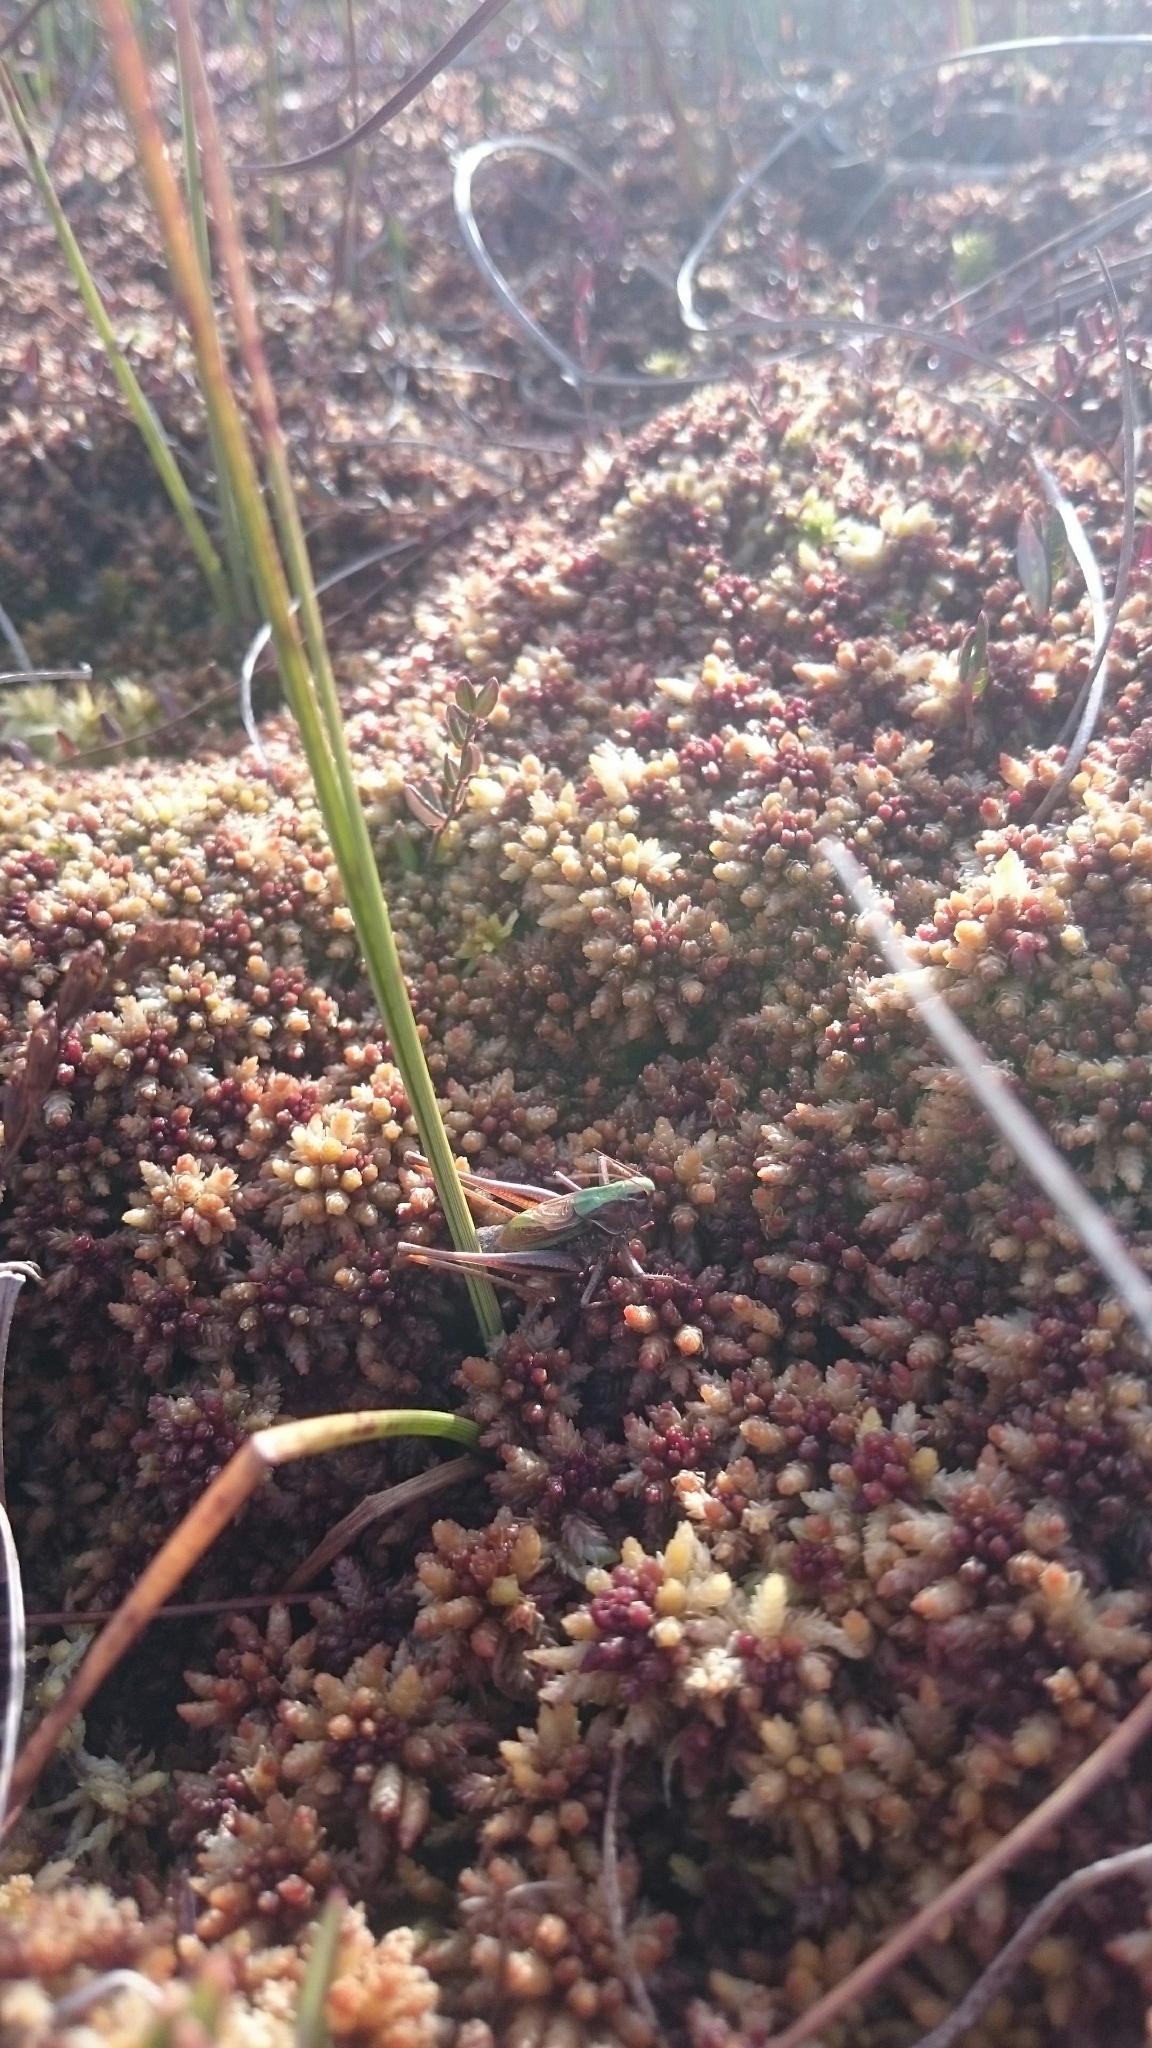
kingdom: Animalia
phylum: Arthropoda
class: Insecta
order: Orthoptera
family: Tettigoniidae
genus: Metrioptera
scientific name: Metrioptera brachyptera
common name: Bog bush-cricket
